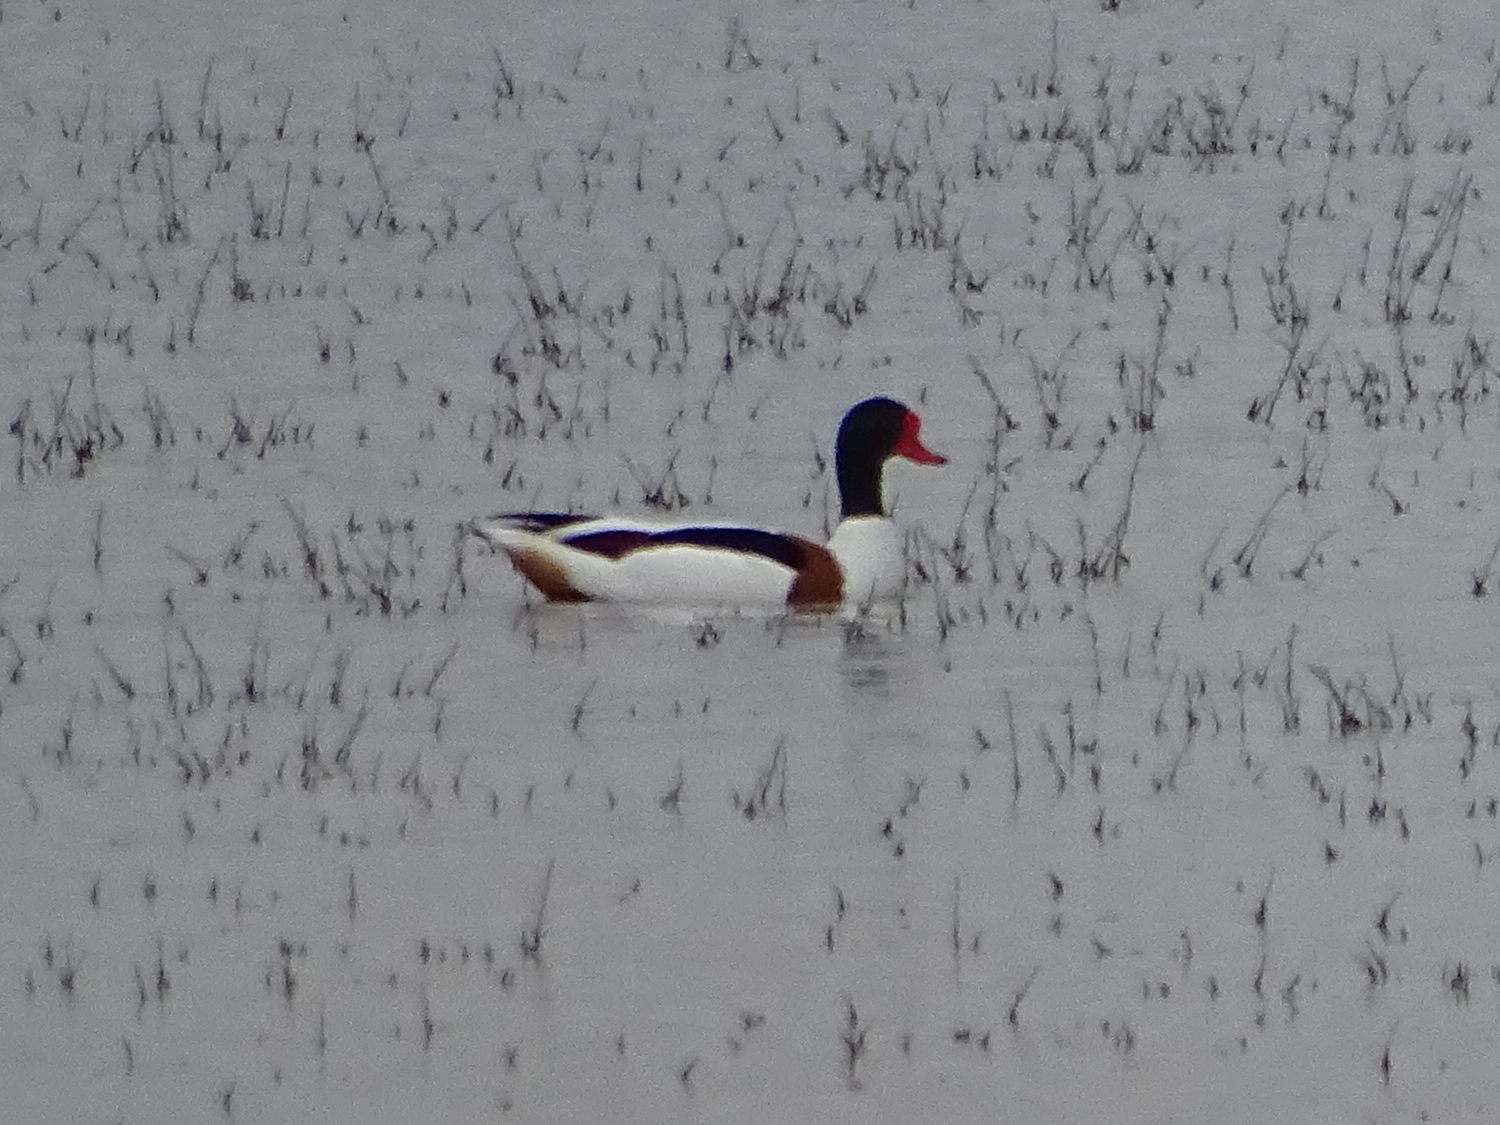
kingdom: Animalia
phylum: Chordata
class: Aves
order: Anseriformes
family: Anatidae
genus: Tadorna
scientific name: Tadorna tadorna
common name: Common shelduck
